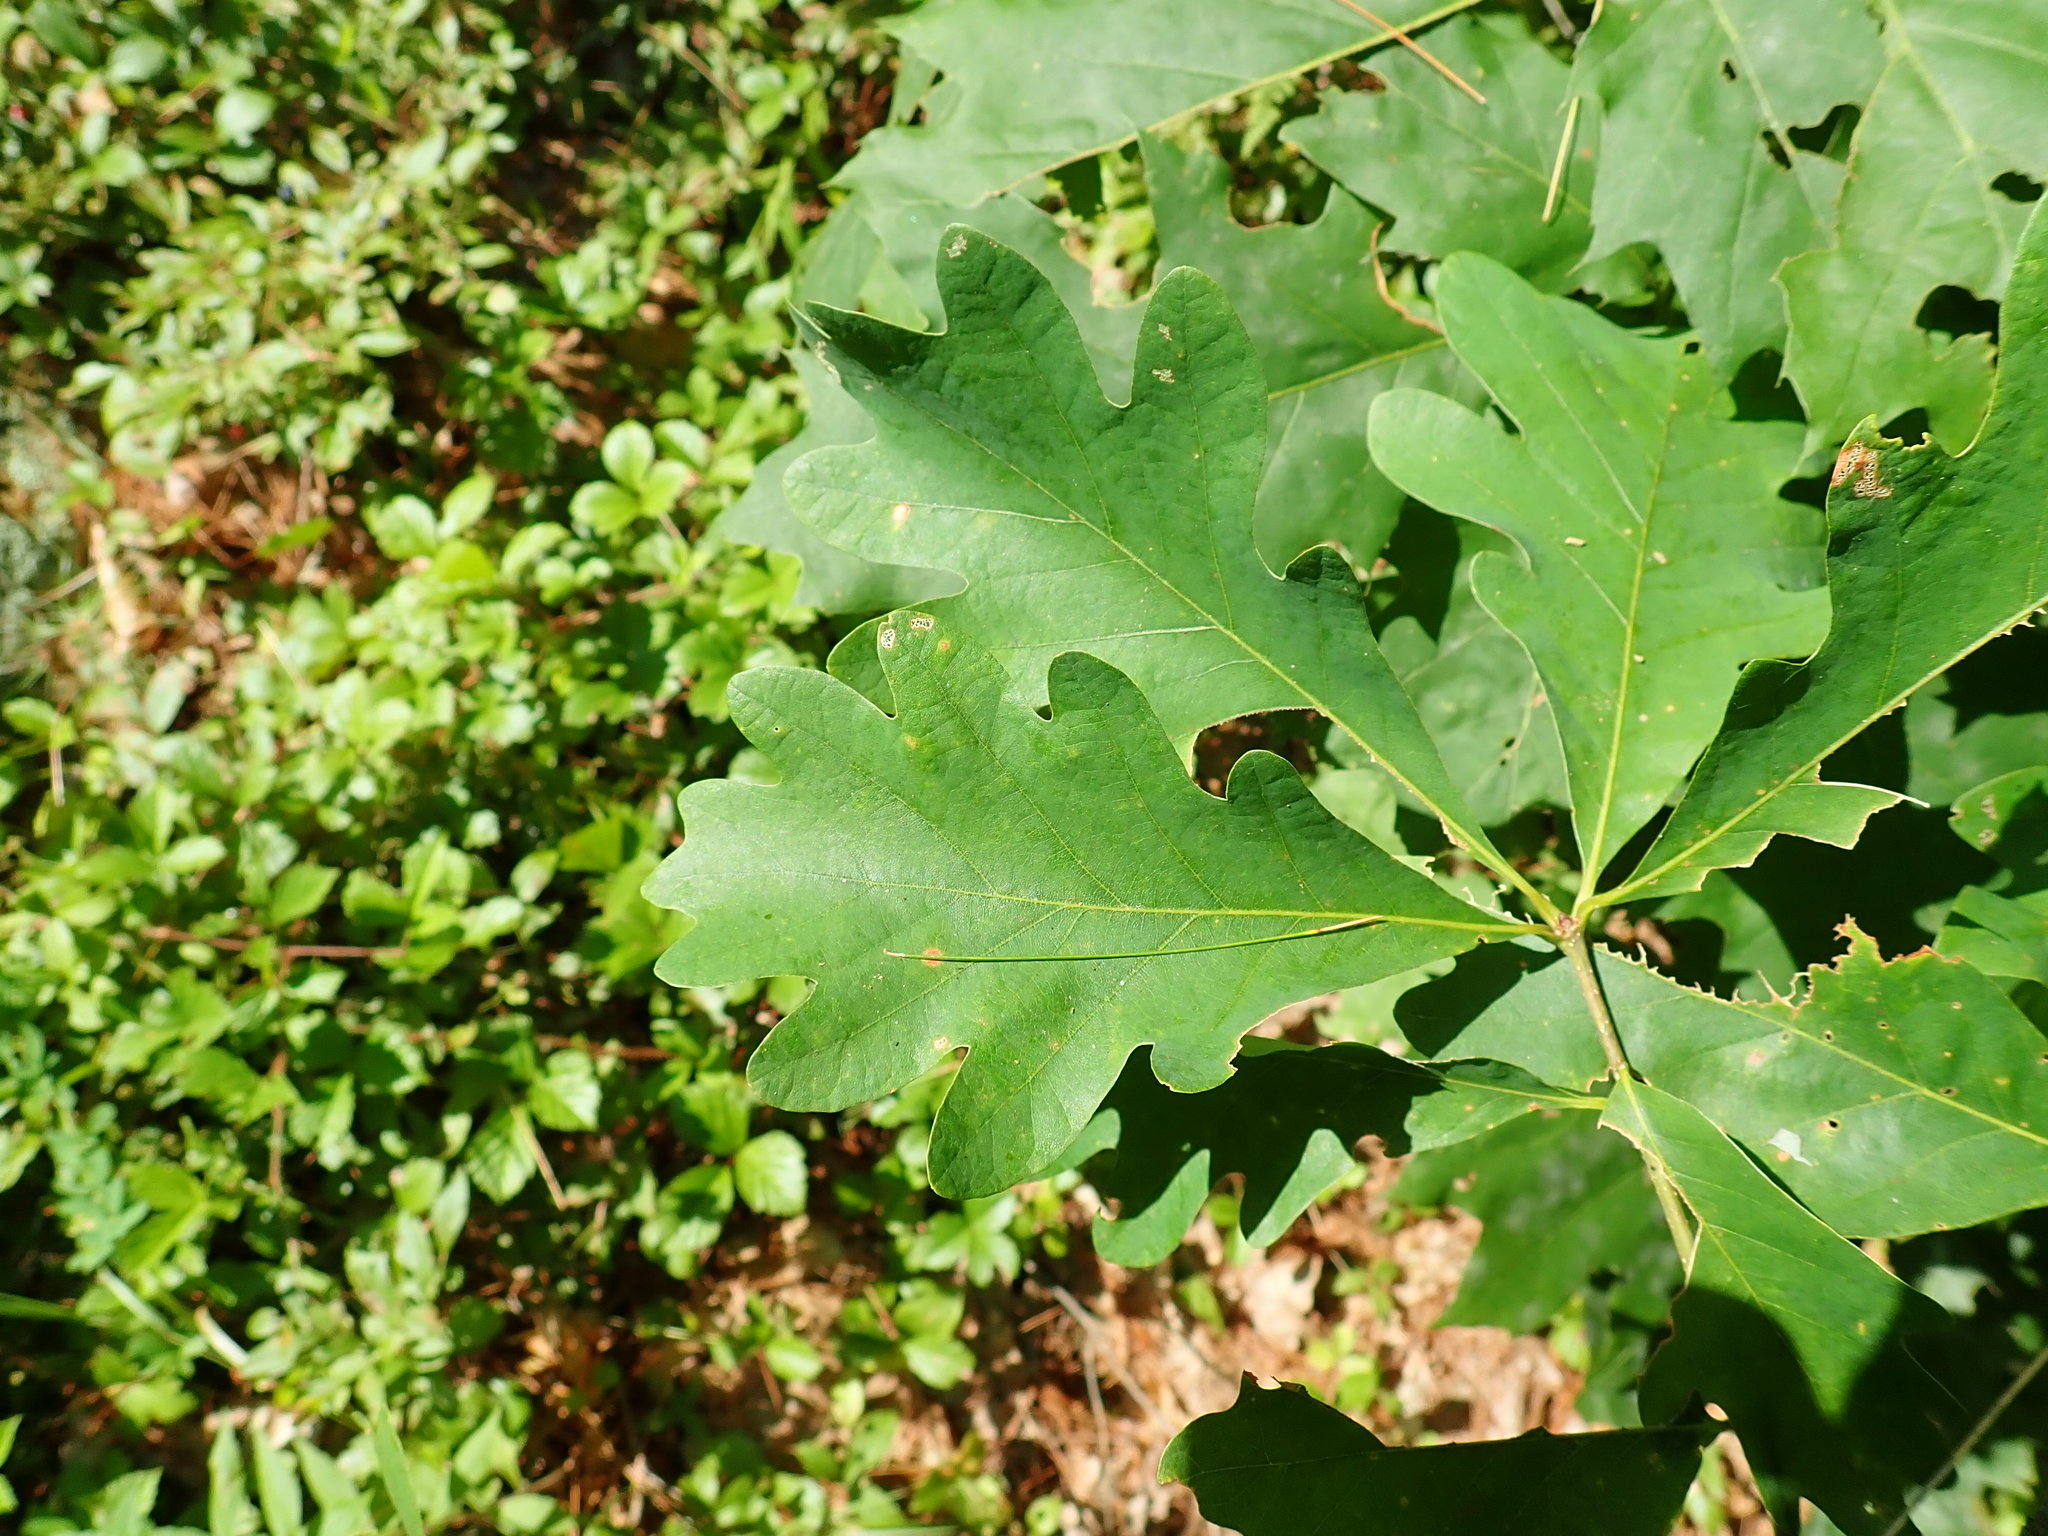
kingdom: Plantae
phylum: Tracheophyta
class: Magnoliopsida
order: Fagales
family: Fagaceae
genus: Quercus
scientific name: Quercus alba
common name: White oak
